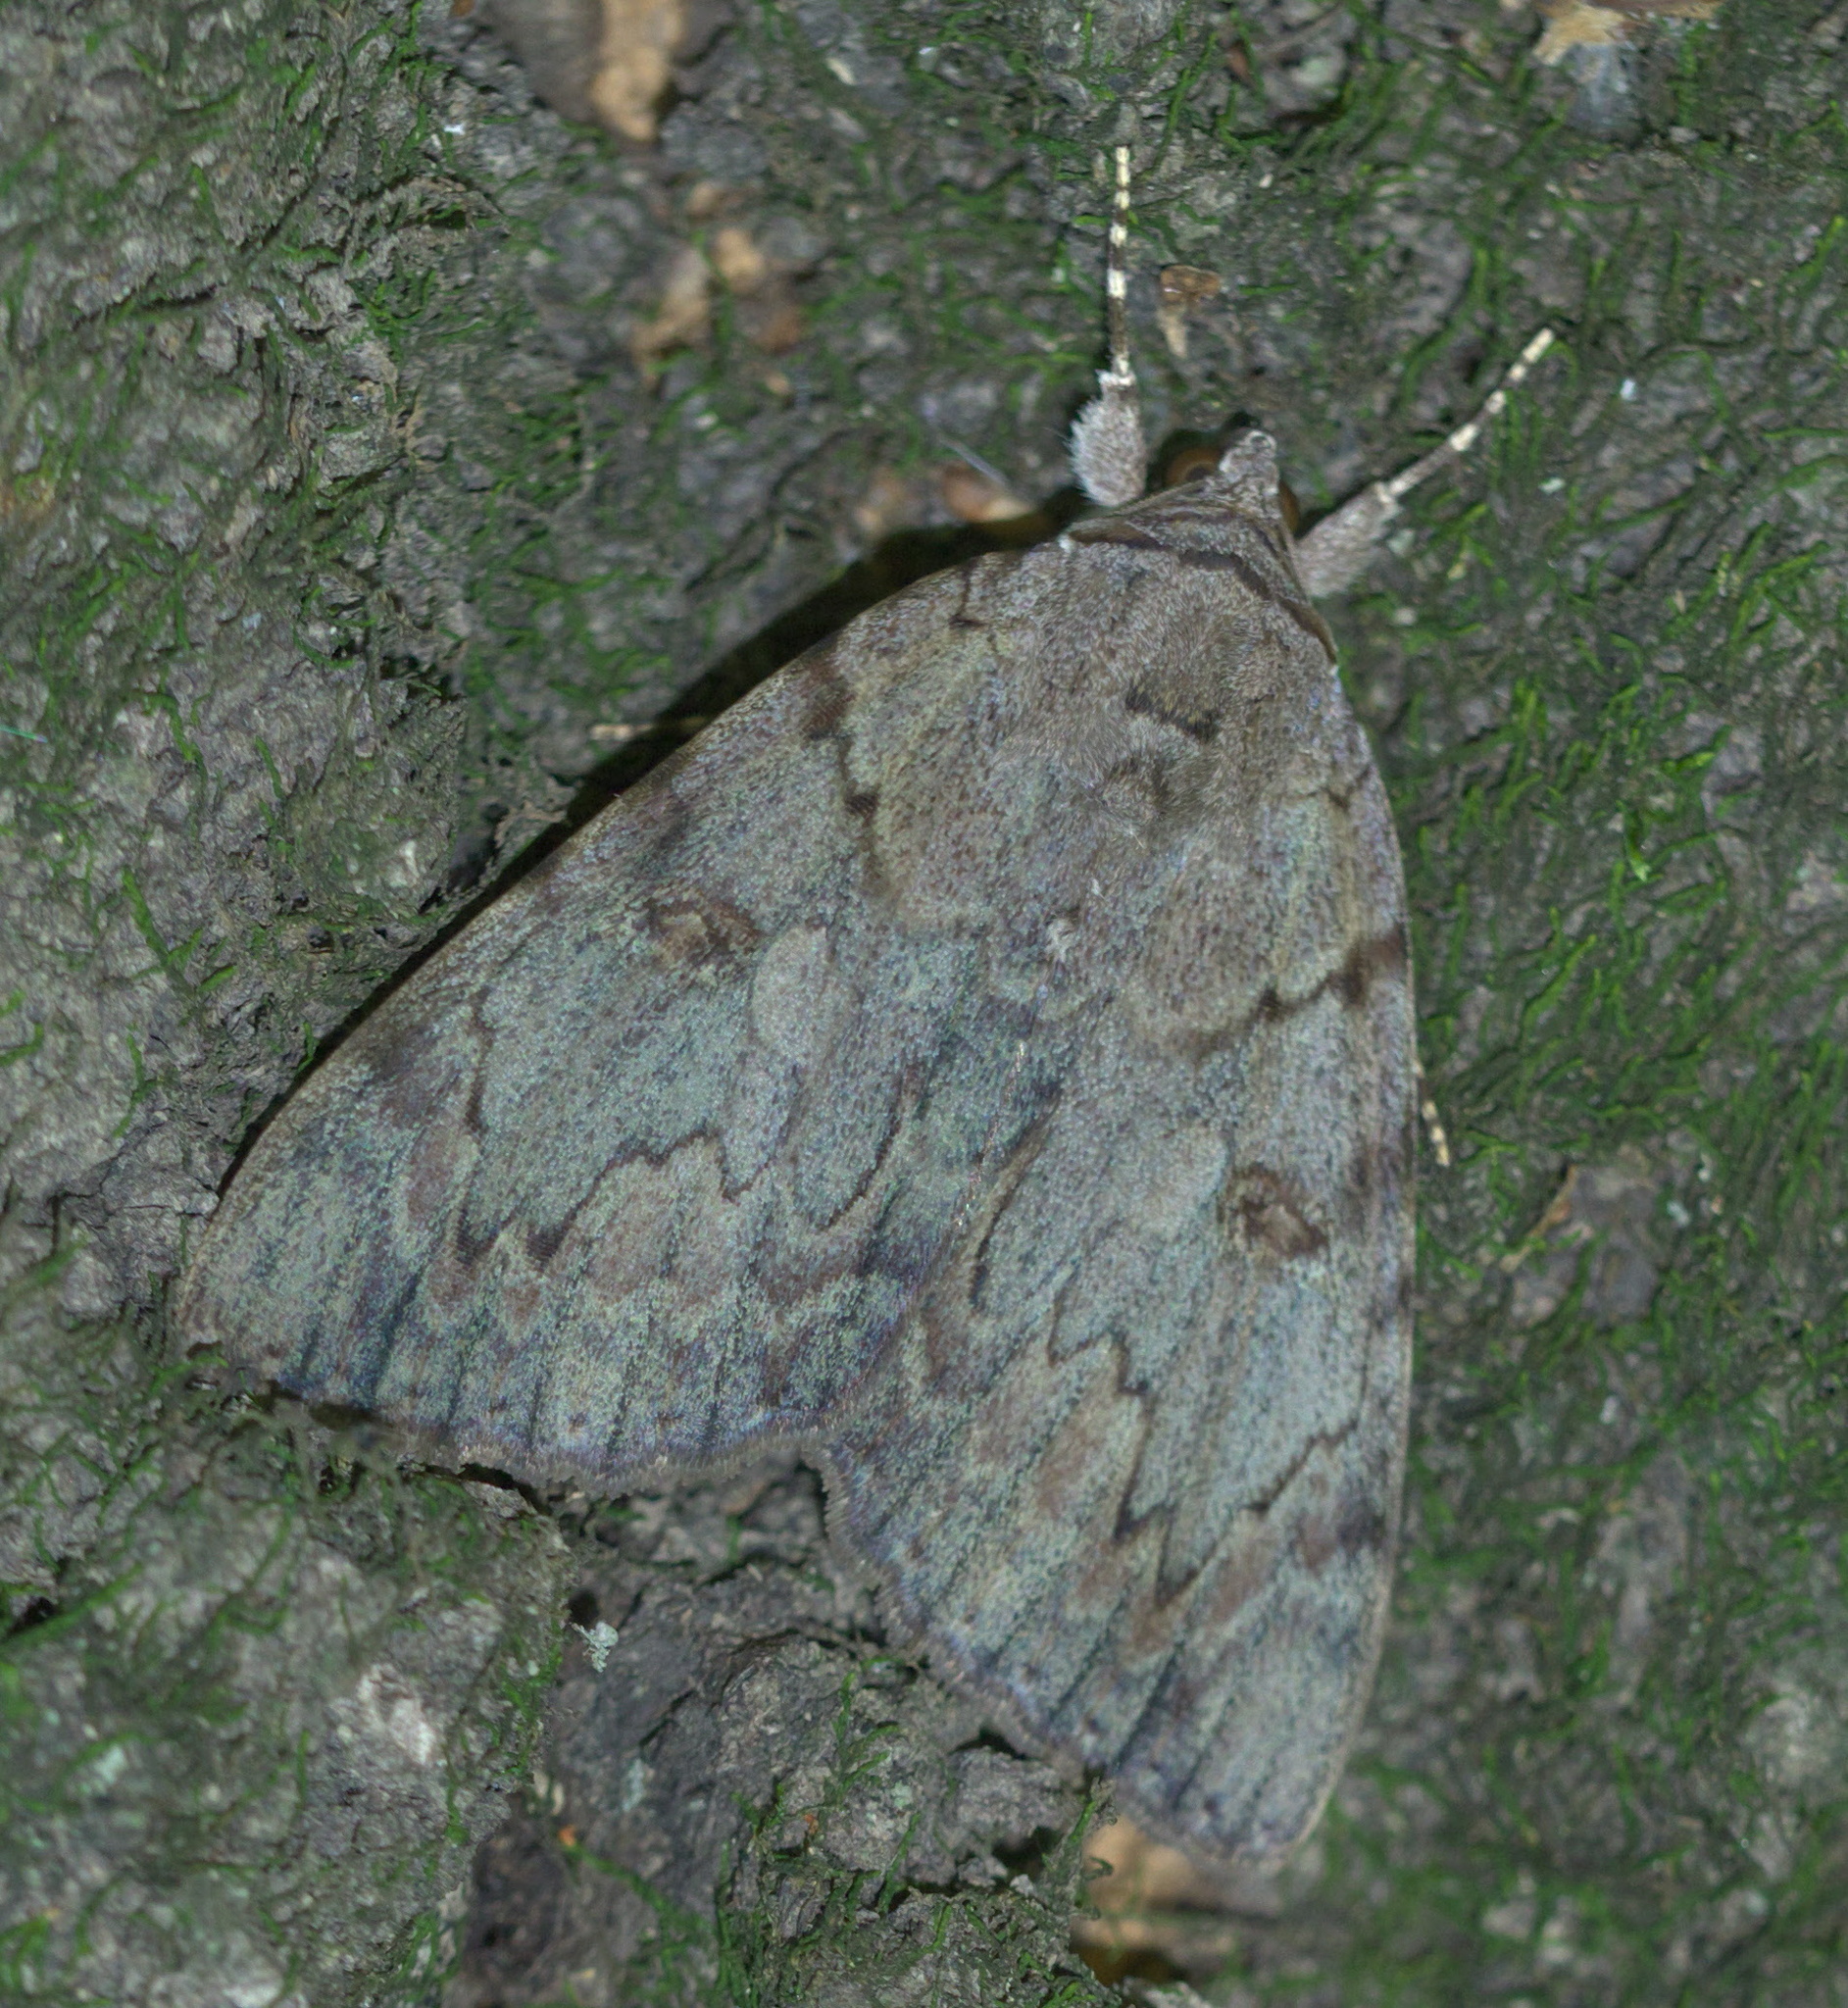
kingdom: Animalia
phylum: Arthropoda
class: Insecta
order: Lepidoptera
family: Erebidae
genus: Catocala
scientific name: Catocala agrippina
